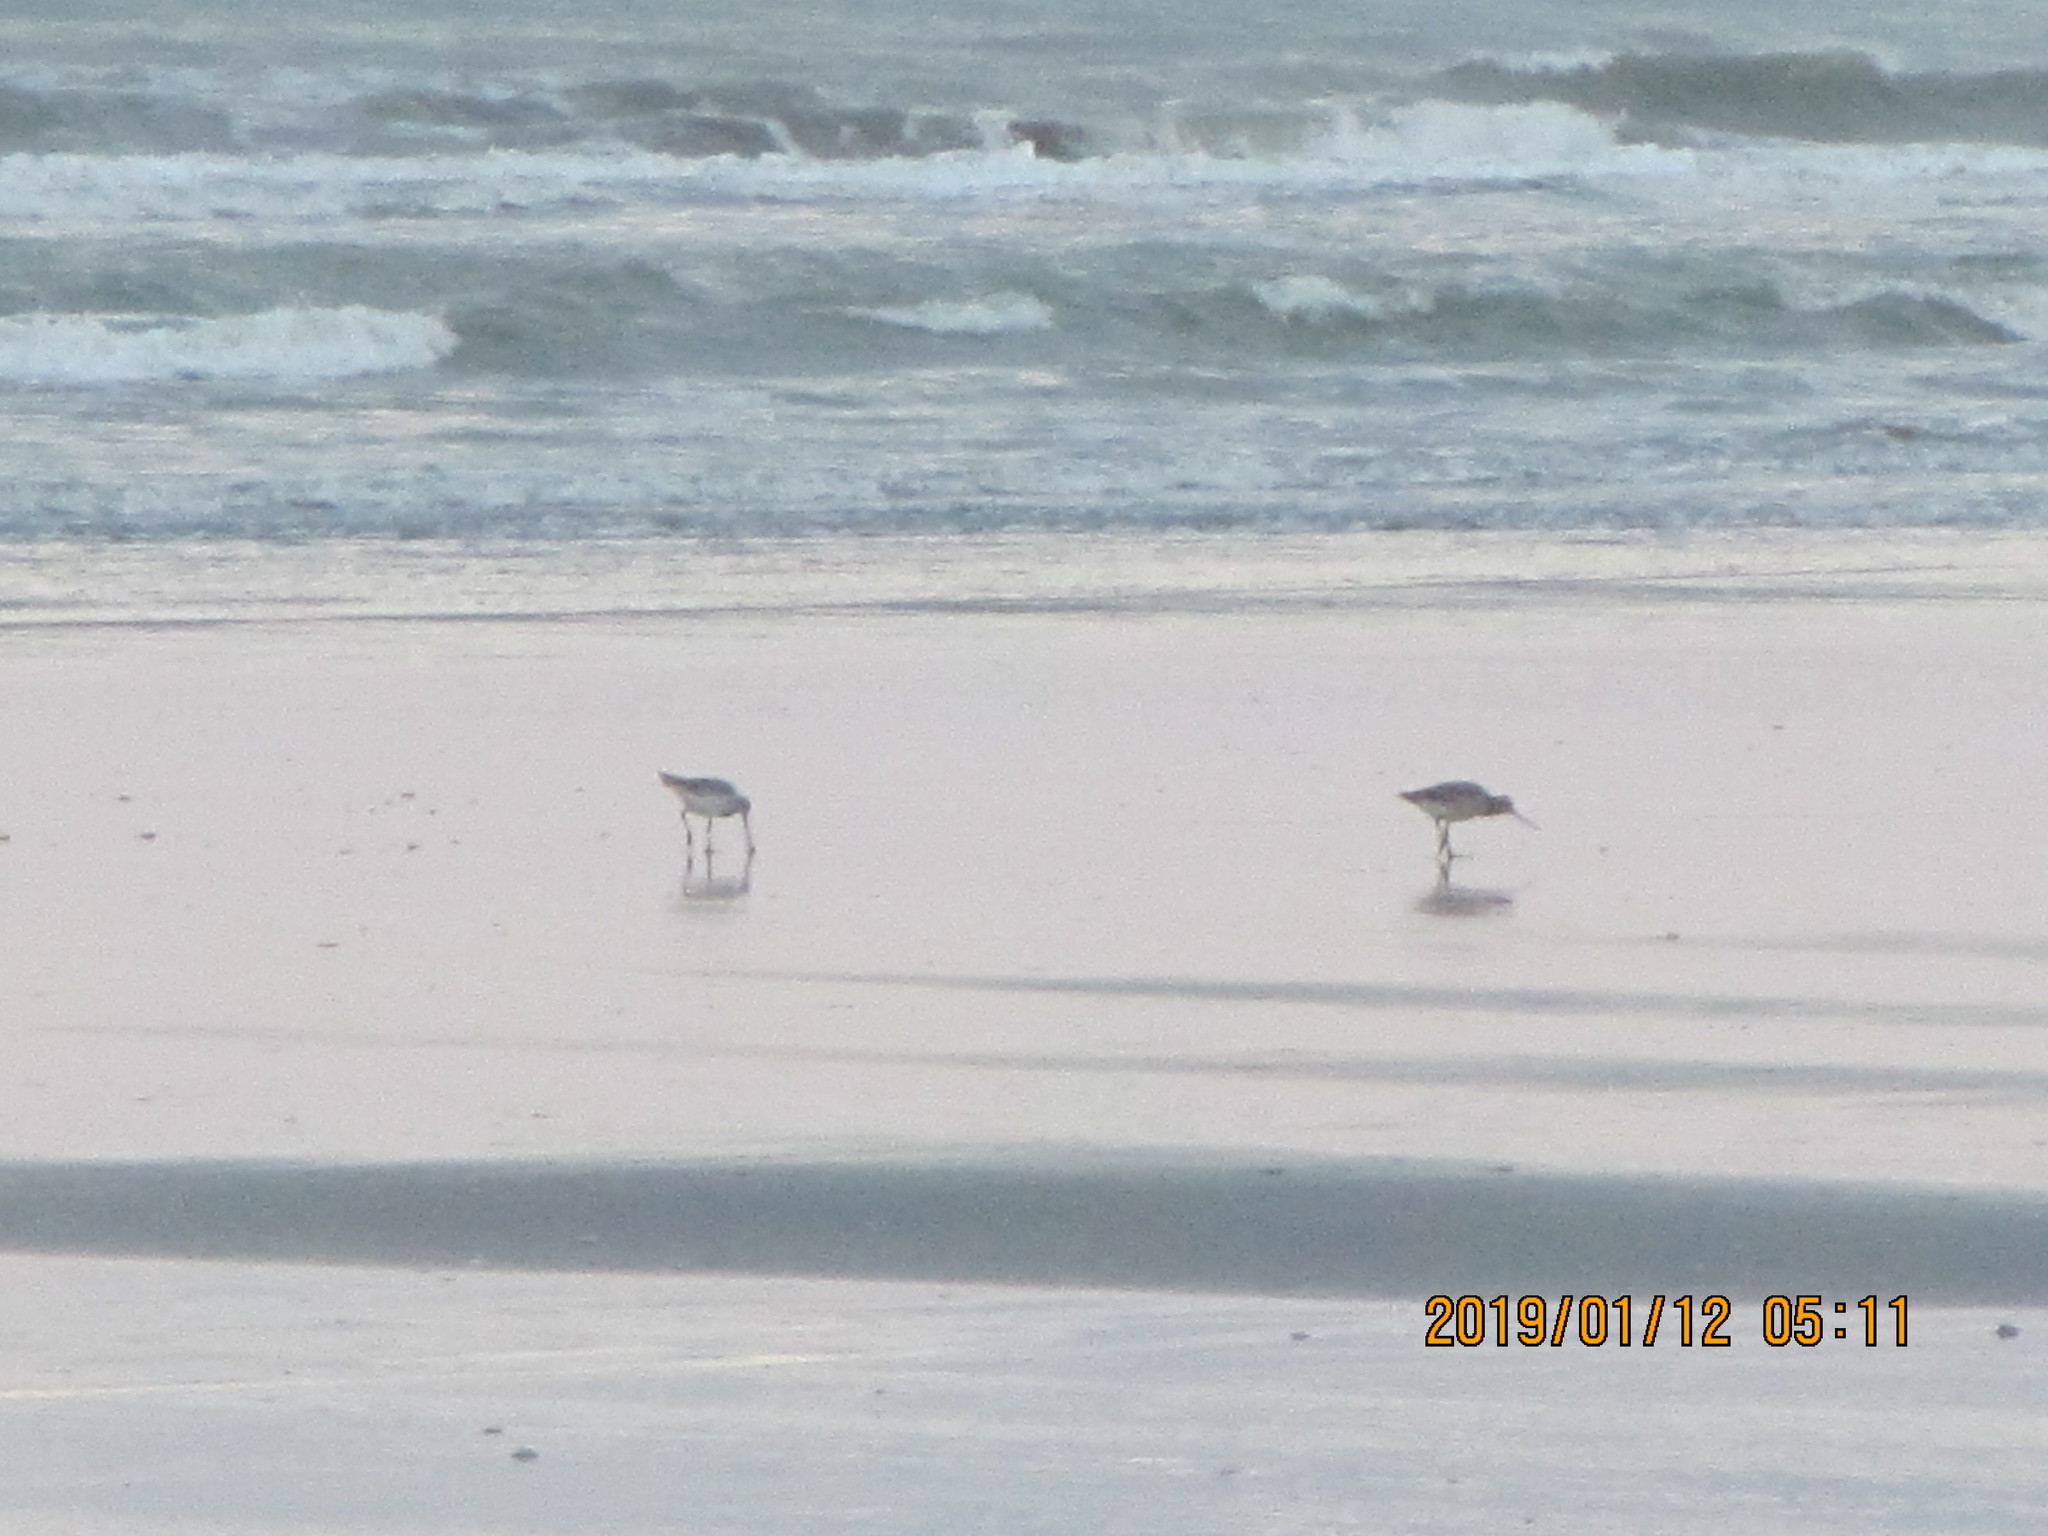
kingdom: Animalia
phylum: Chordata
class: Aves
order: Charadriiformes
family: Scolopacidae
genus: Limosa
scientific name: Limosa lapponica
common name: Bar-tailed godwit
